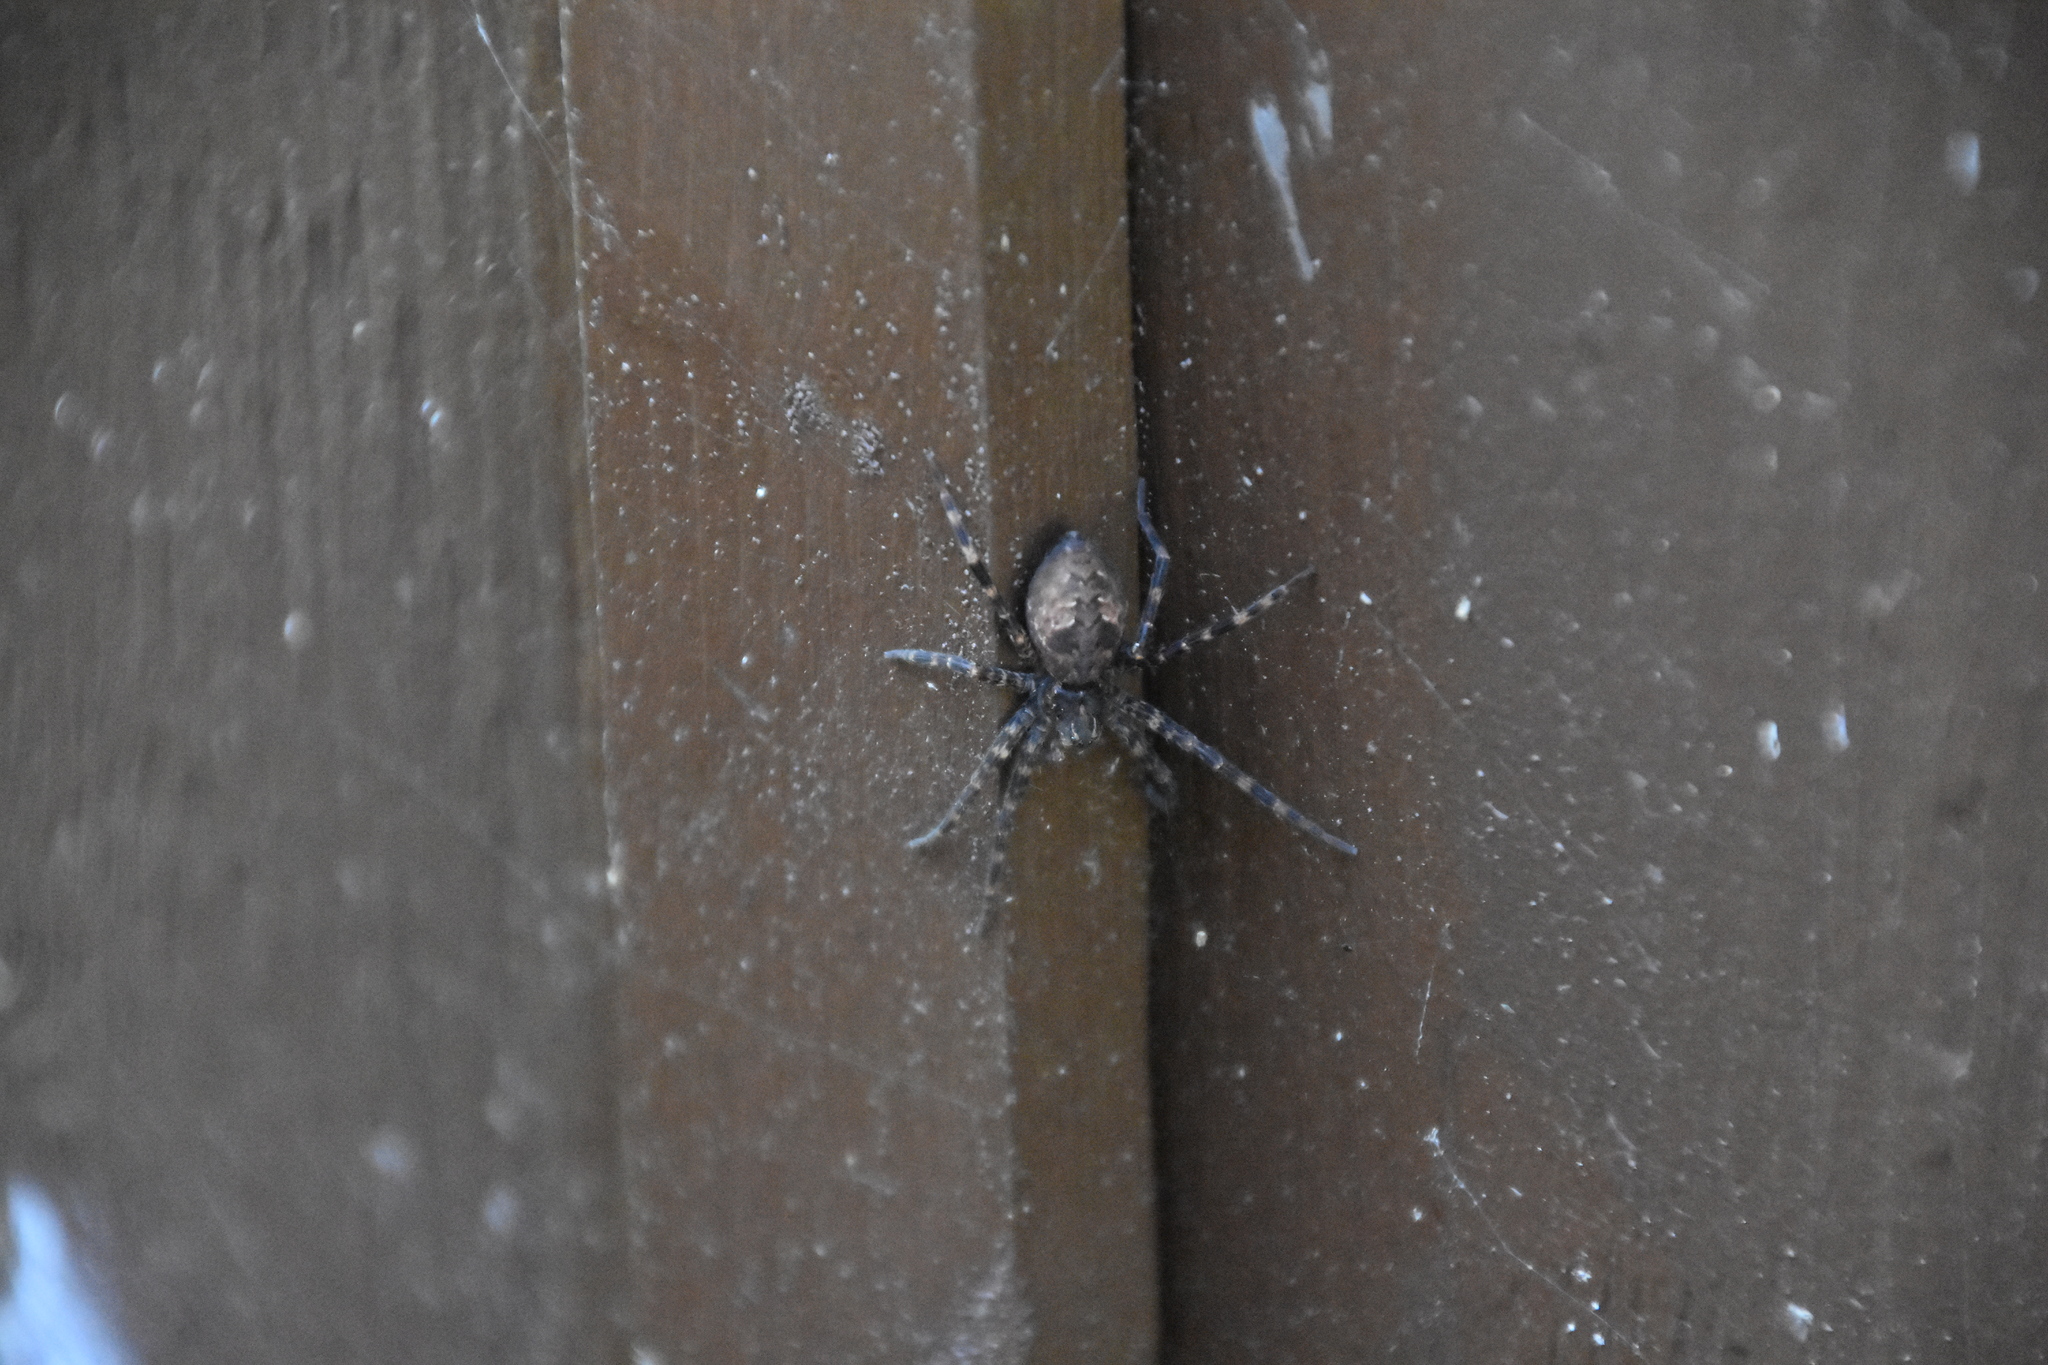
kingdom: Animalia
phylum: Arthropoda
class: Arachnida
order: Araneae
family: Pisauridae
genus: Dolomedes
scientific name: Dolomedes tenebrosus
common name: Dark fishing spider
